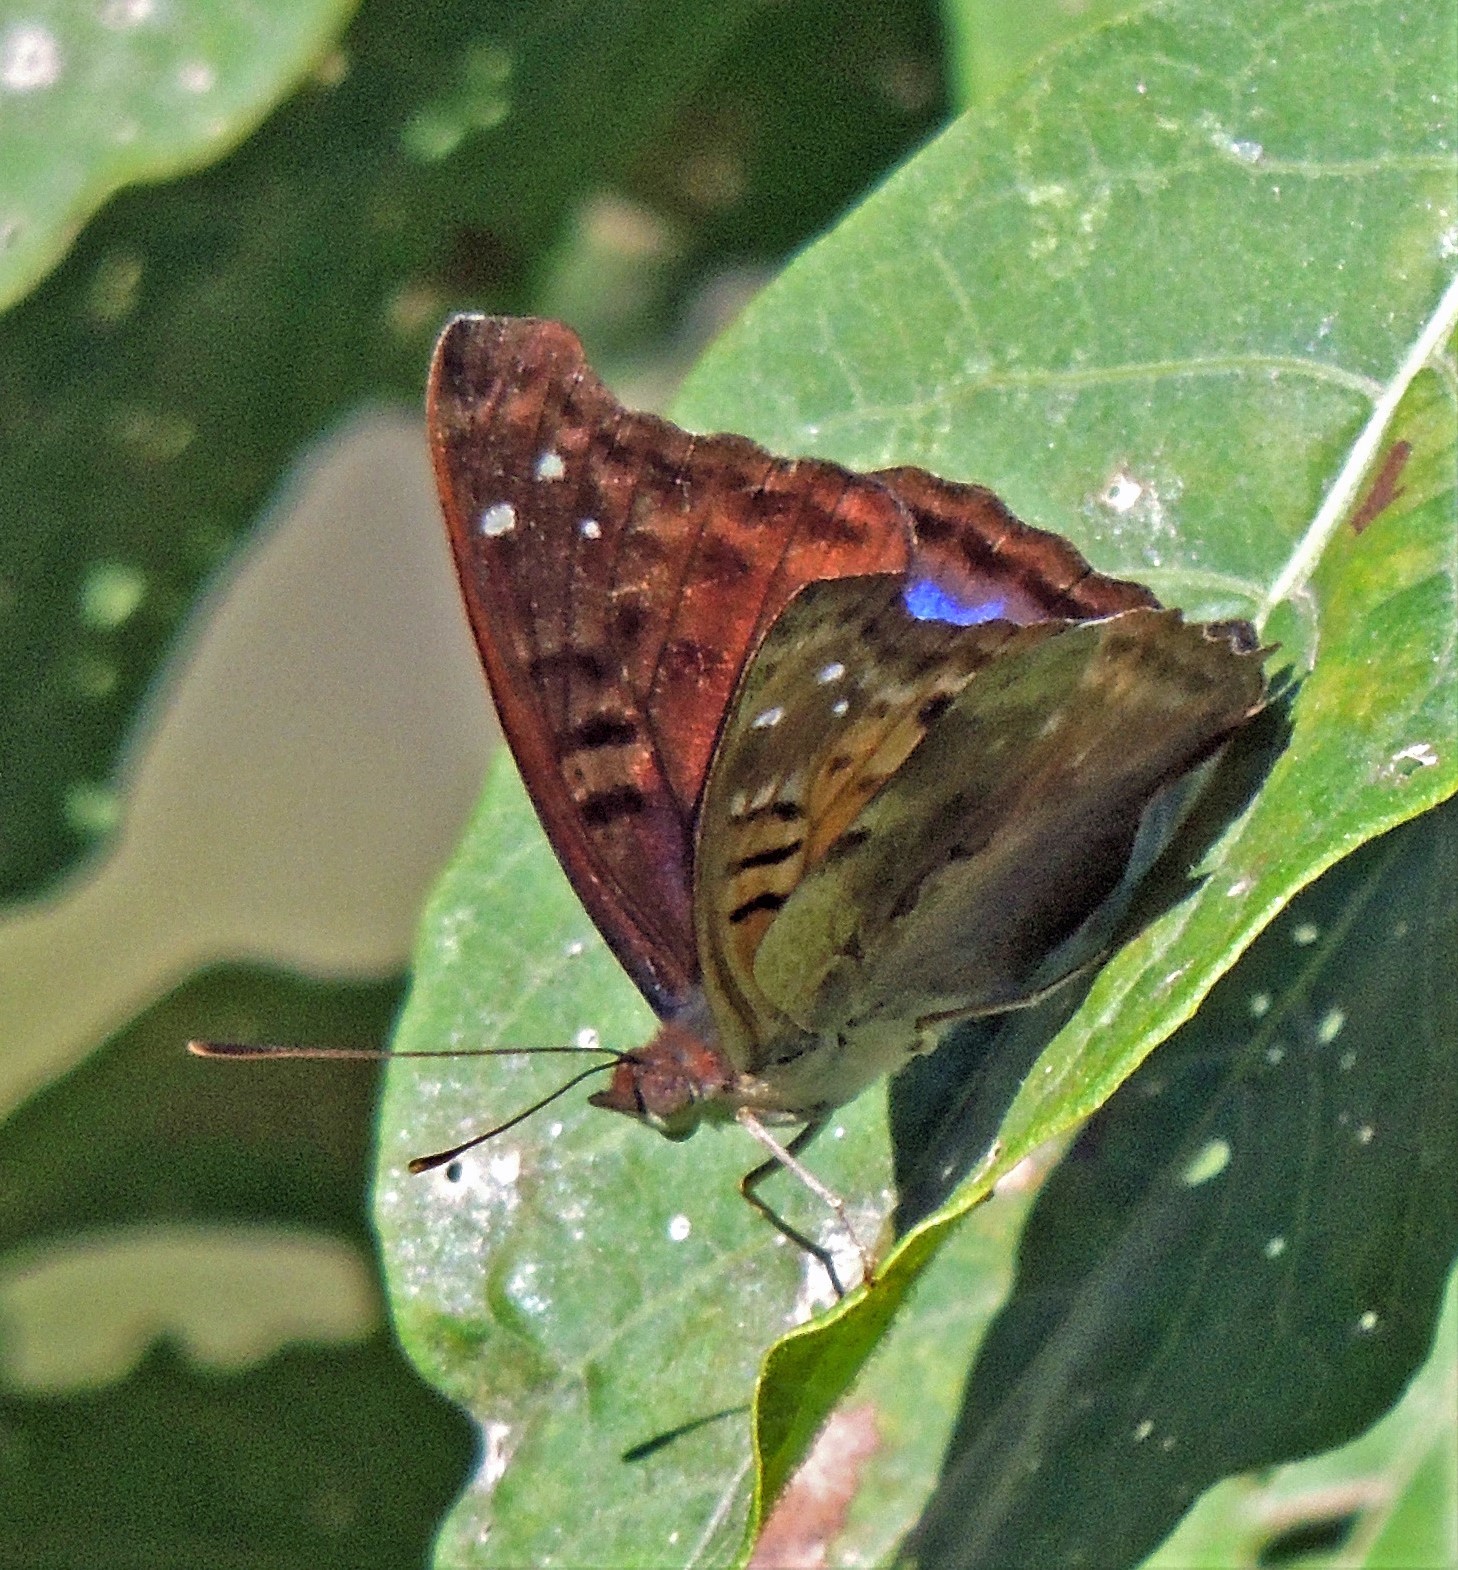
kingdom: Animalia
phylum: Arthropoda
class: Insecta
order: Lepidoptera
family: Nymphalidae
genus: Doxocopa
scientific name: Doxocopa cyane
